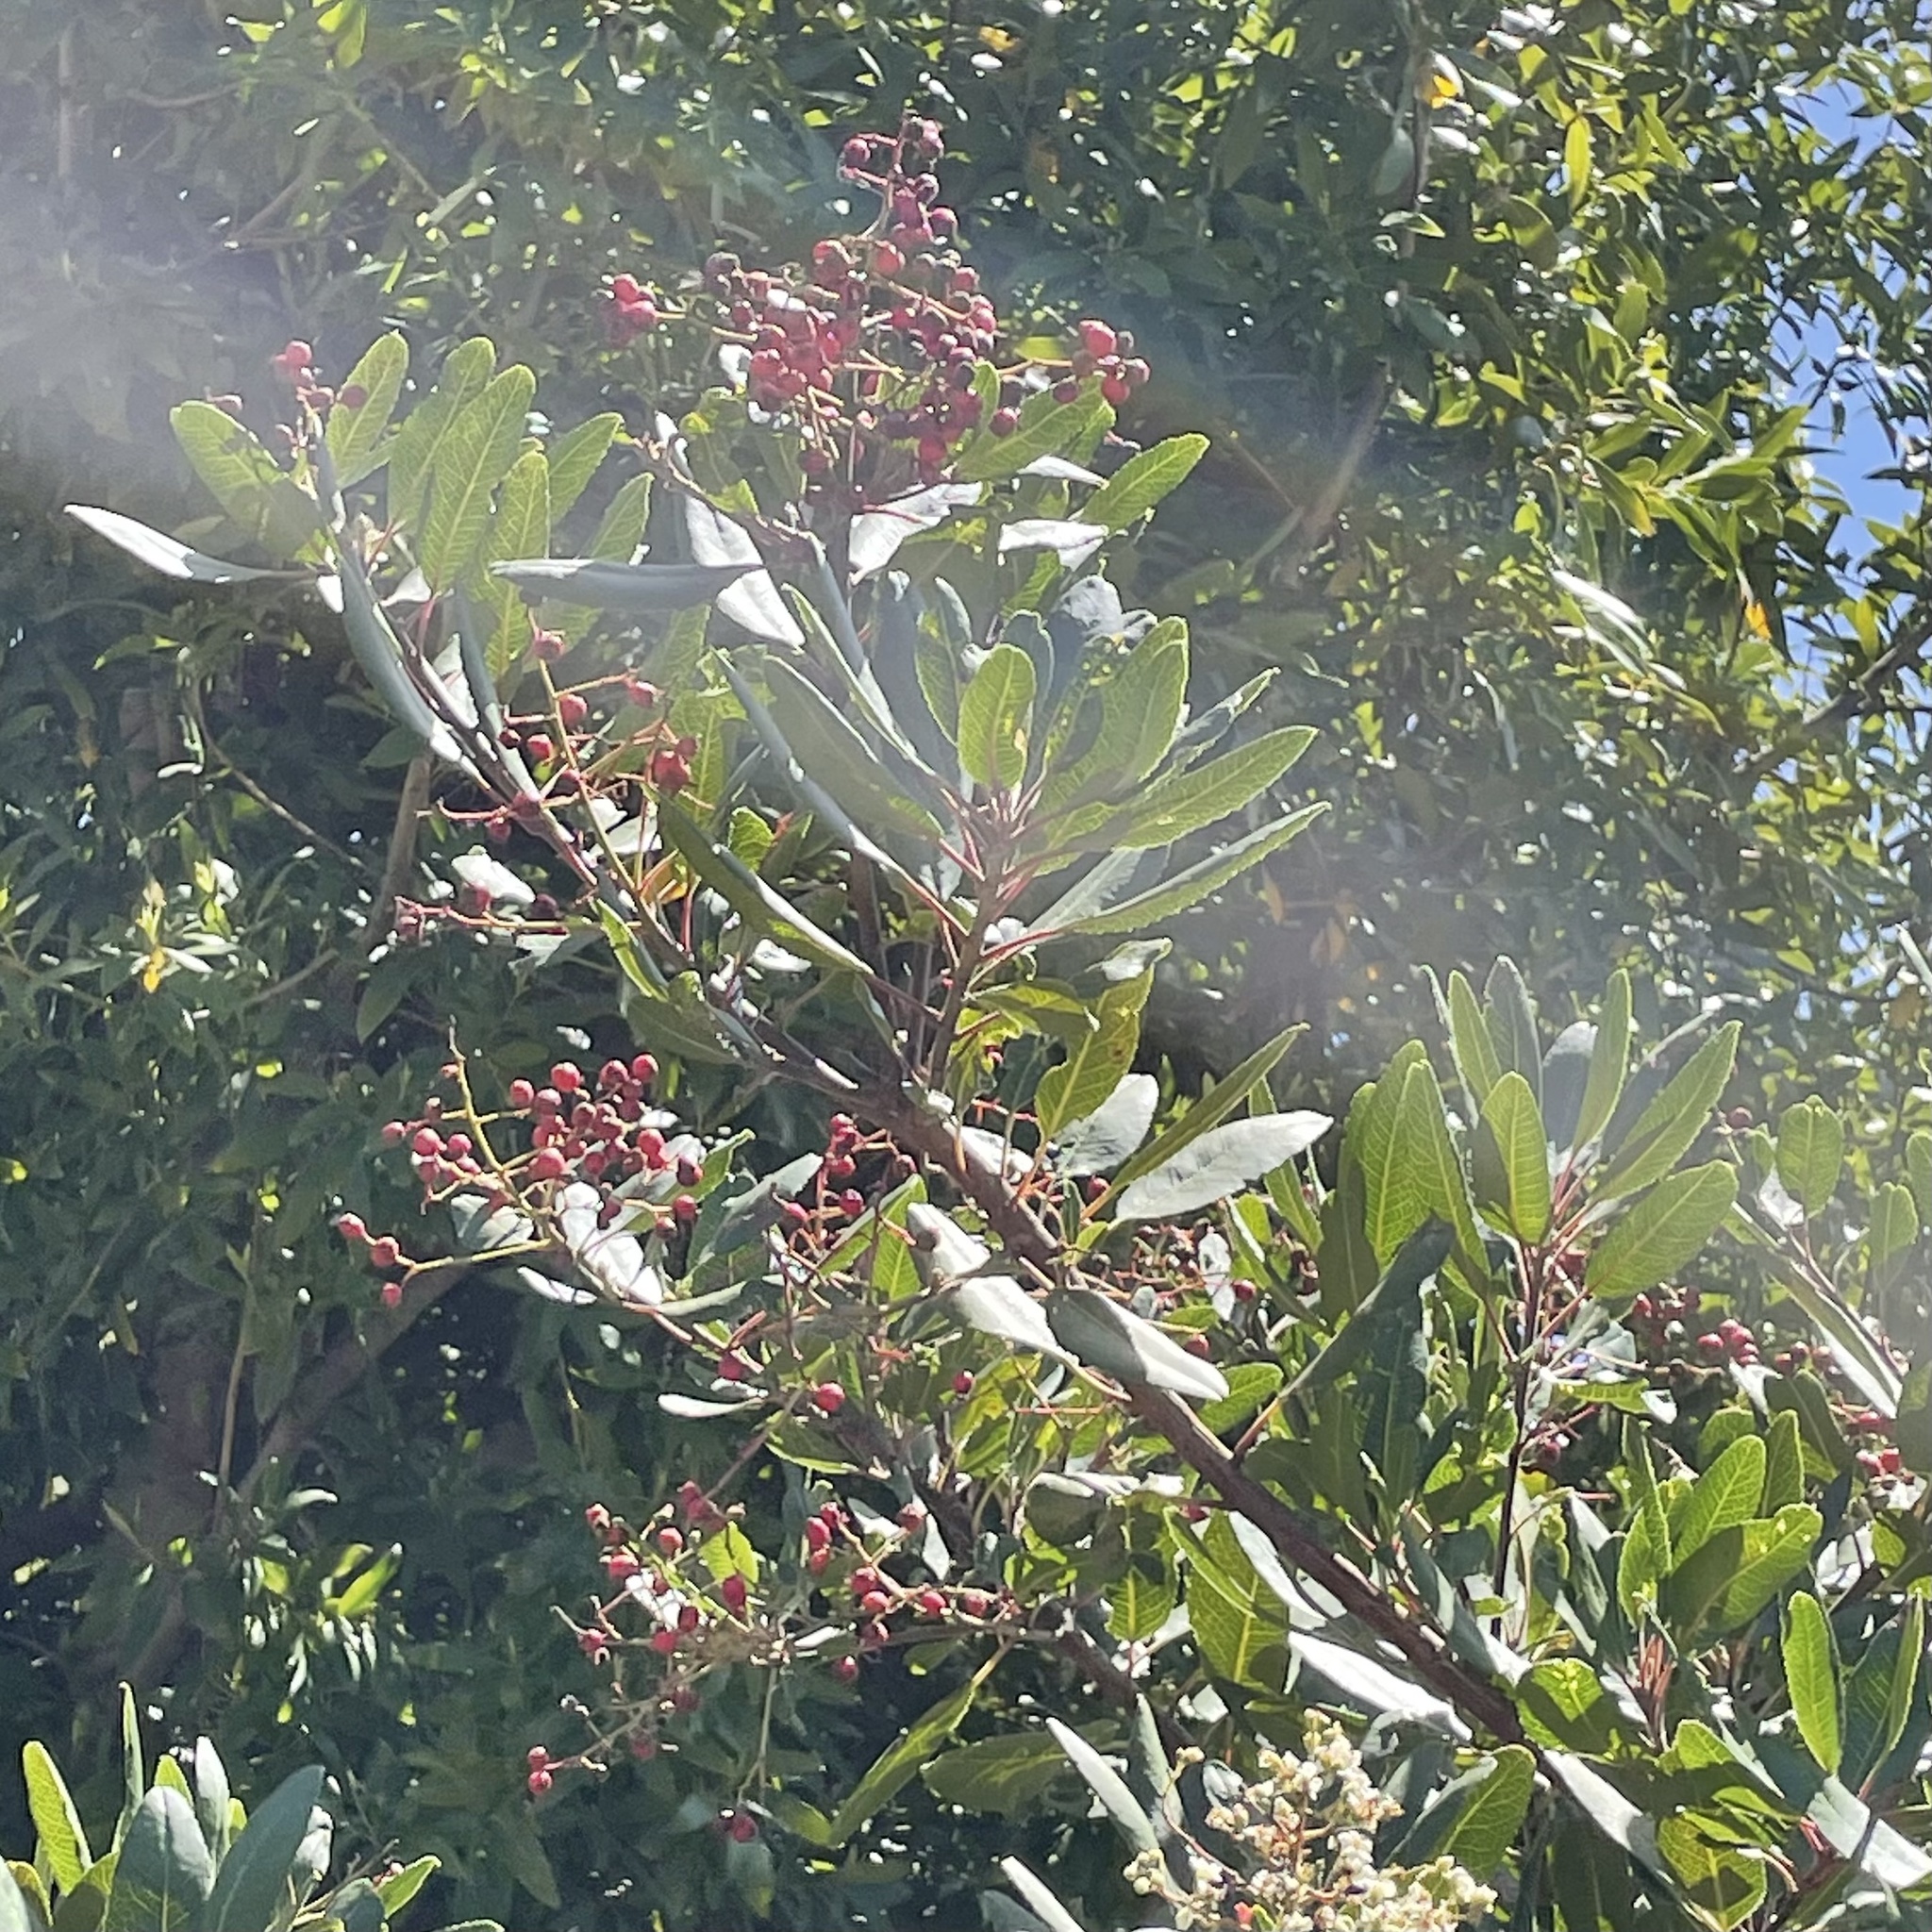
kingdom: Plantae
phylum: Tracheophyta
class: Magnoliopsida
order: Rosales
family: Rosaceae
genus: Heteromeles
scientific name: Heteromeles arbutifolia
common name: California-holly
